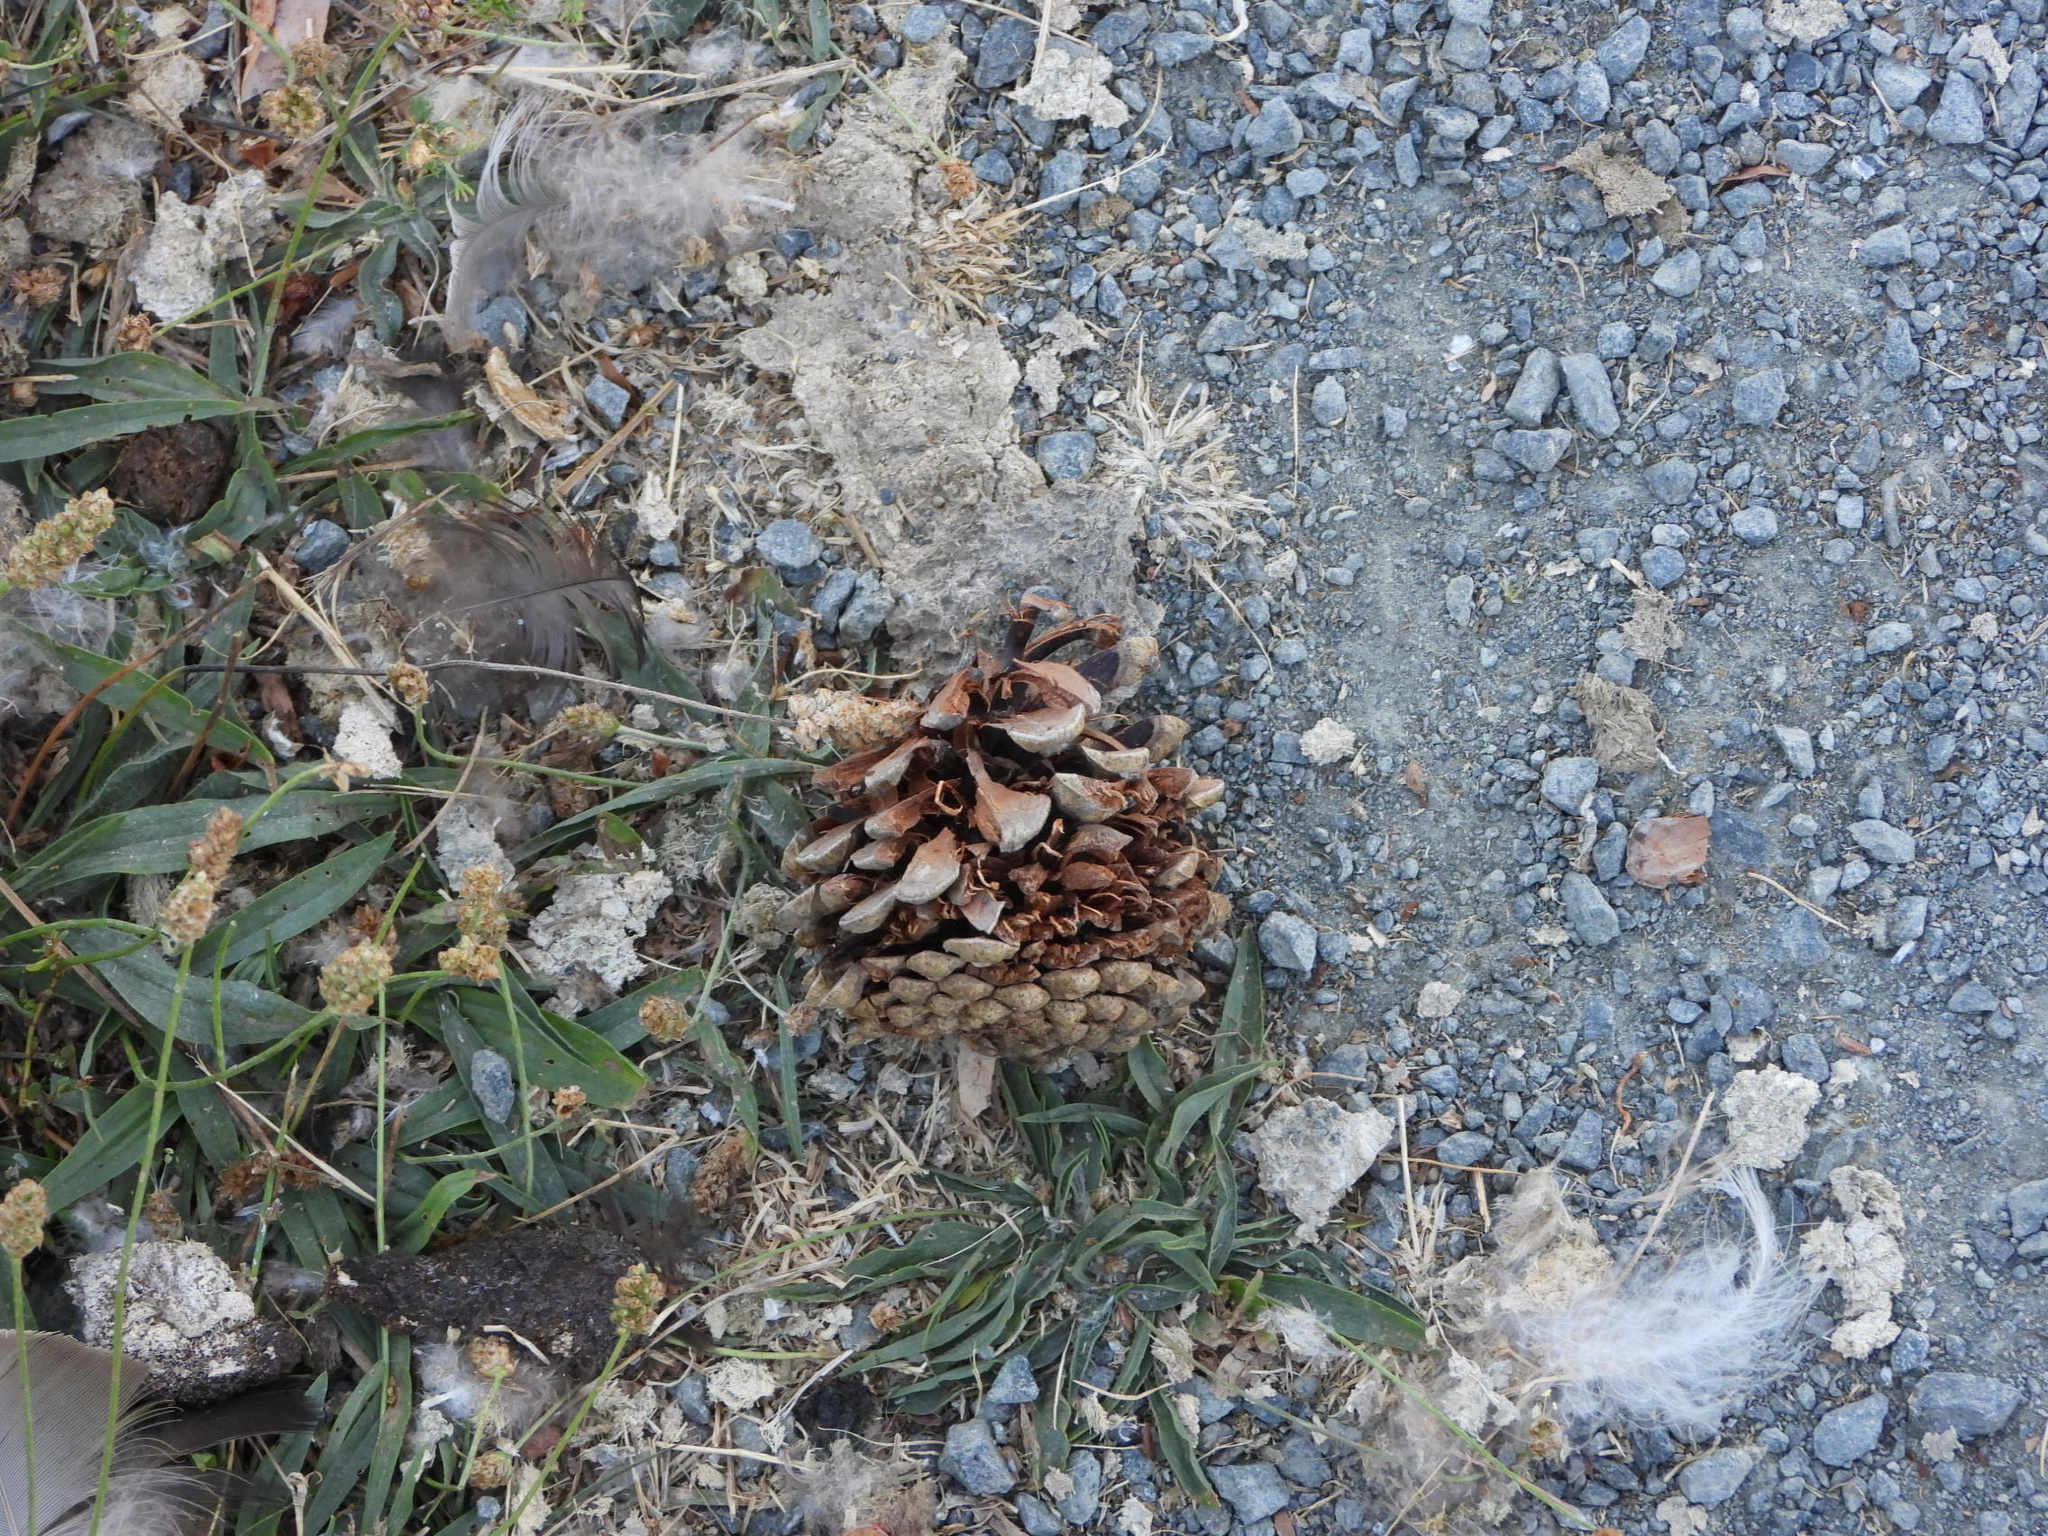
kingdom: Plantae
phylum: Tracheophyta
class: Pinopsida
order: Pinales
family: Pinaceae
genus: Pinus
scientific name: Pinus contorta
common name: Lodgepole pine
